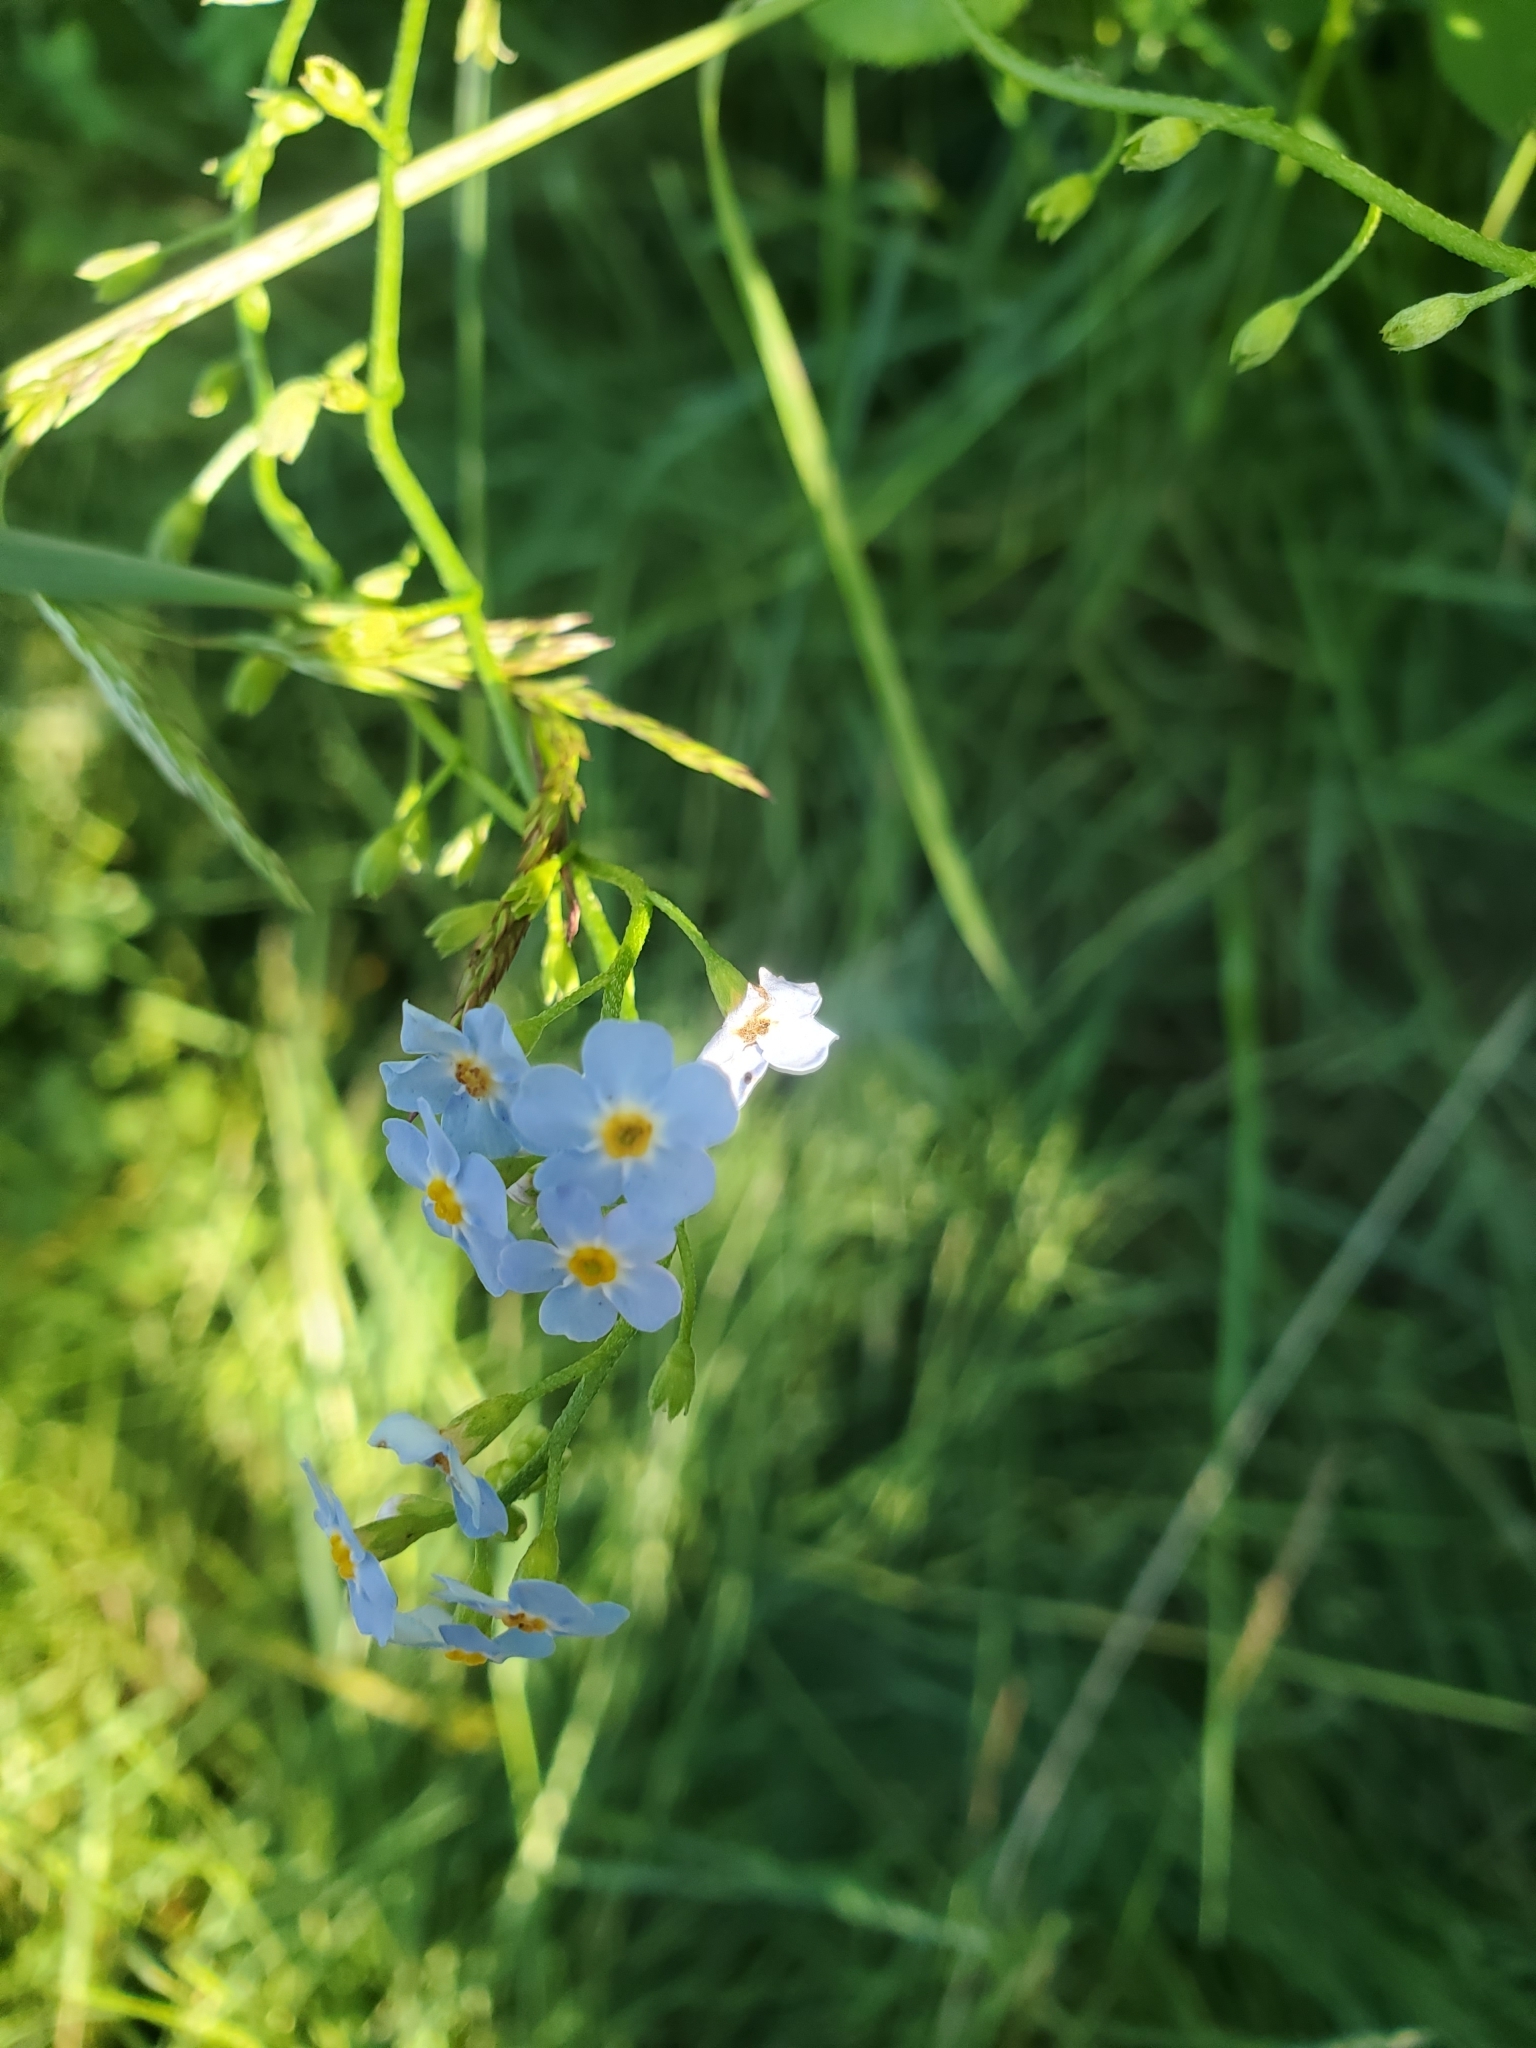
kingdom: Plantae
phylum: Tracheophyta
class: Magnoliopsida
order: Boraginales
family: Boraginaceae
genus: Myosotis
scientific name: Myosotis scorpioides
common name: Water forget-me-not
